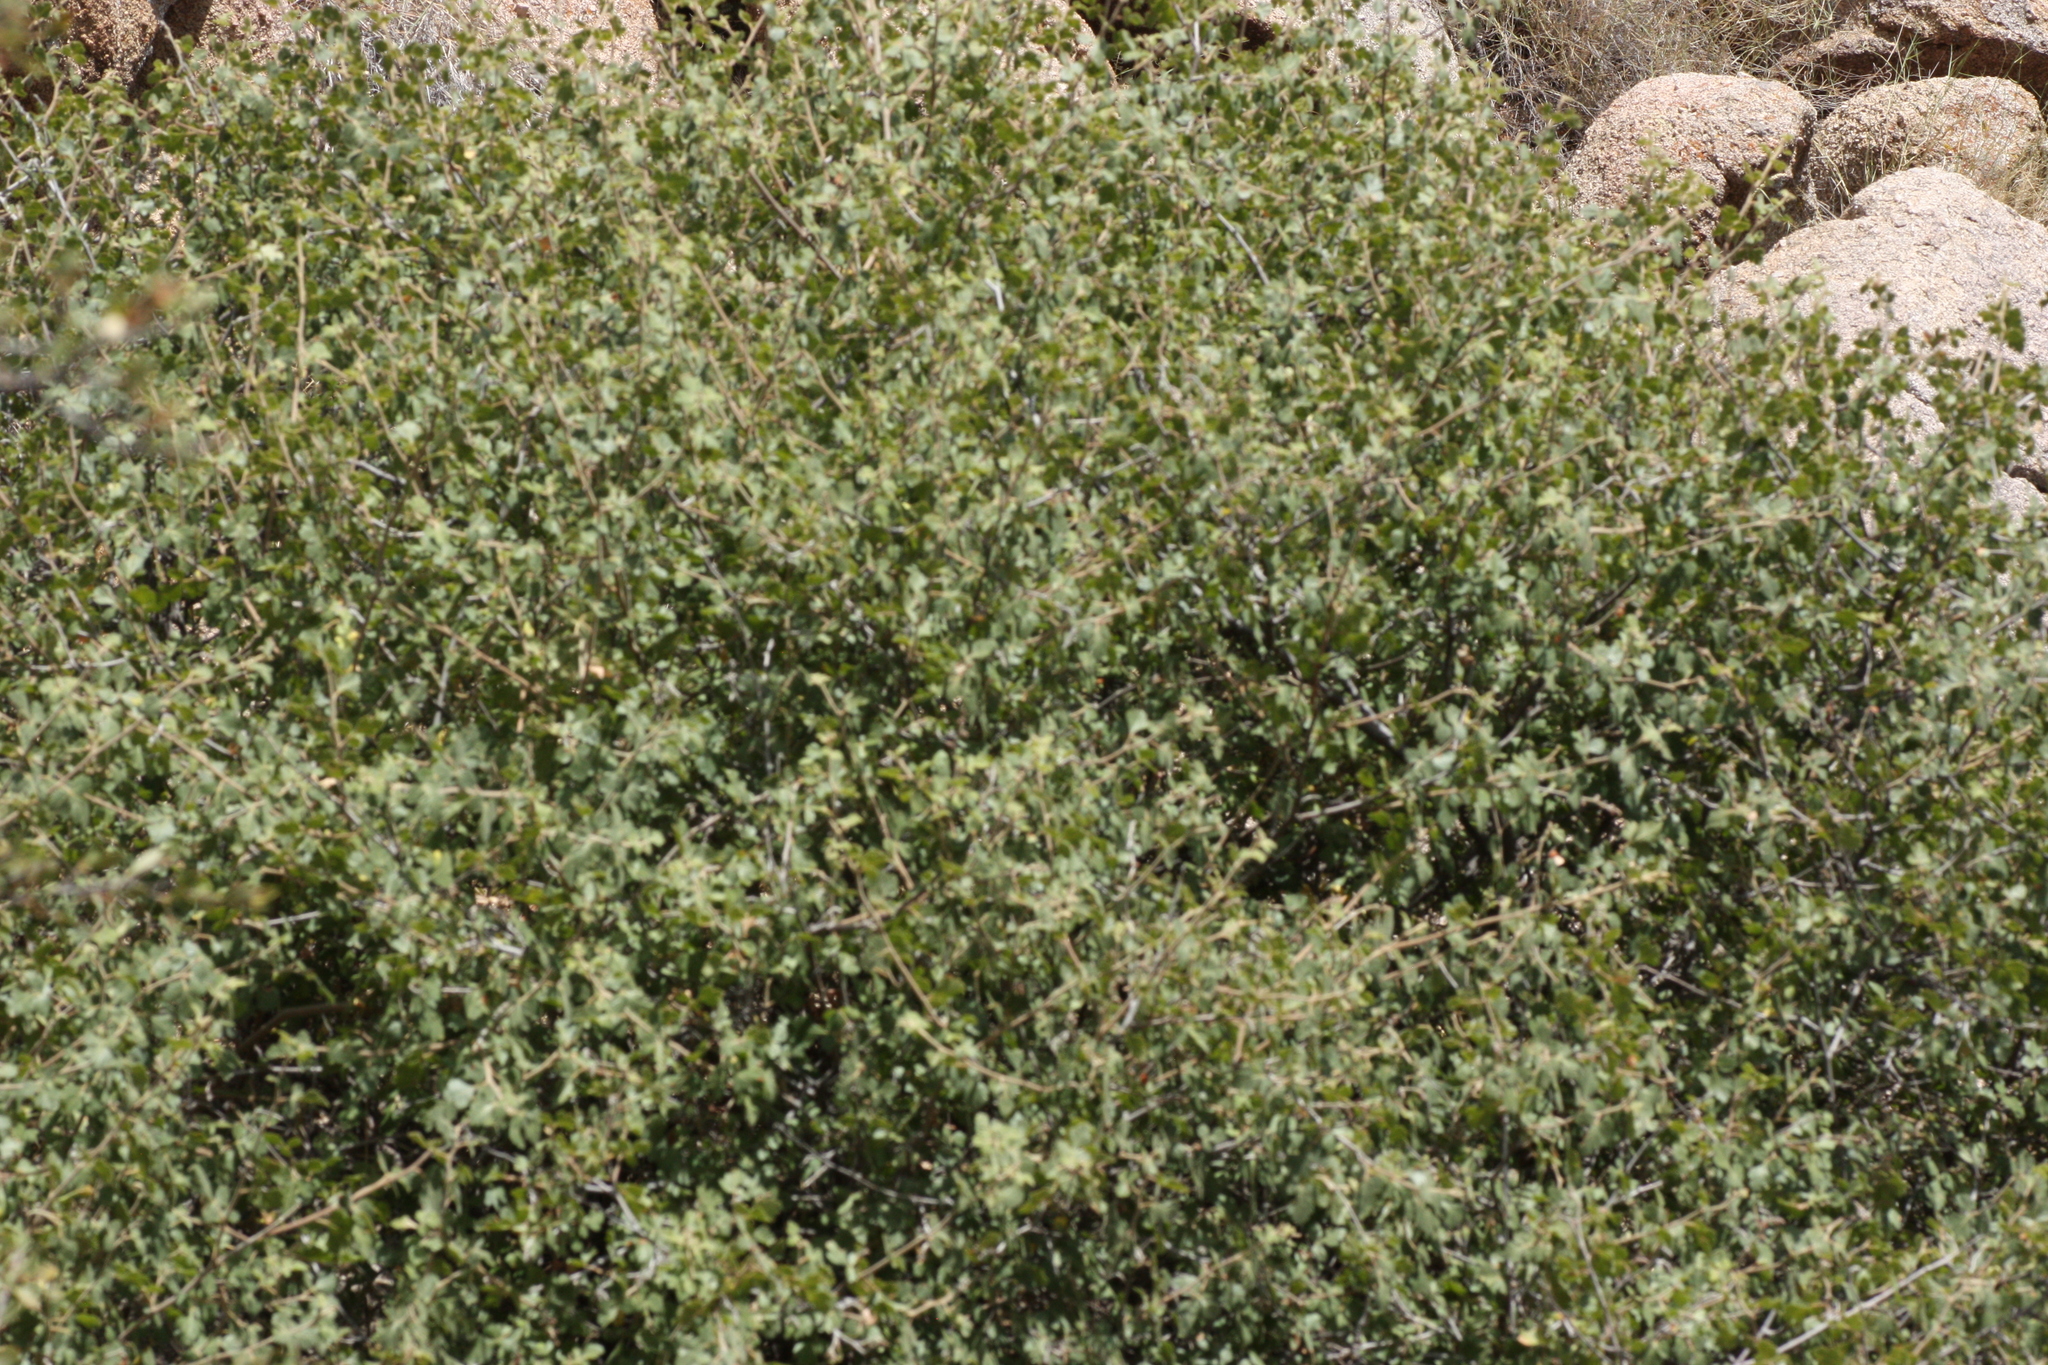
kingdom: Plantae
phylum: Tracheophyta
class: Magnoliopsida
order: Sapindales
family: Anacardiaceae
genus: Rhus
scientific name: Rhus aromatica
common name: Aromatic sumac
